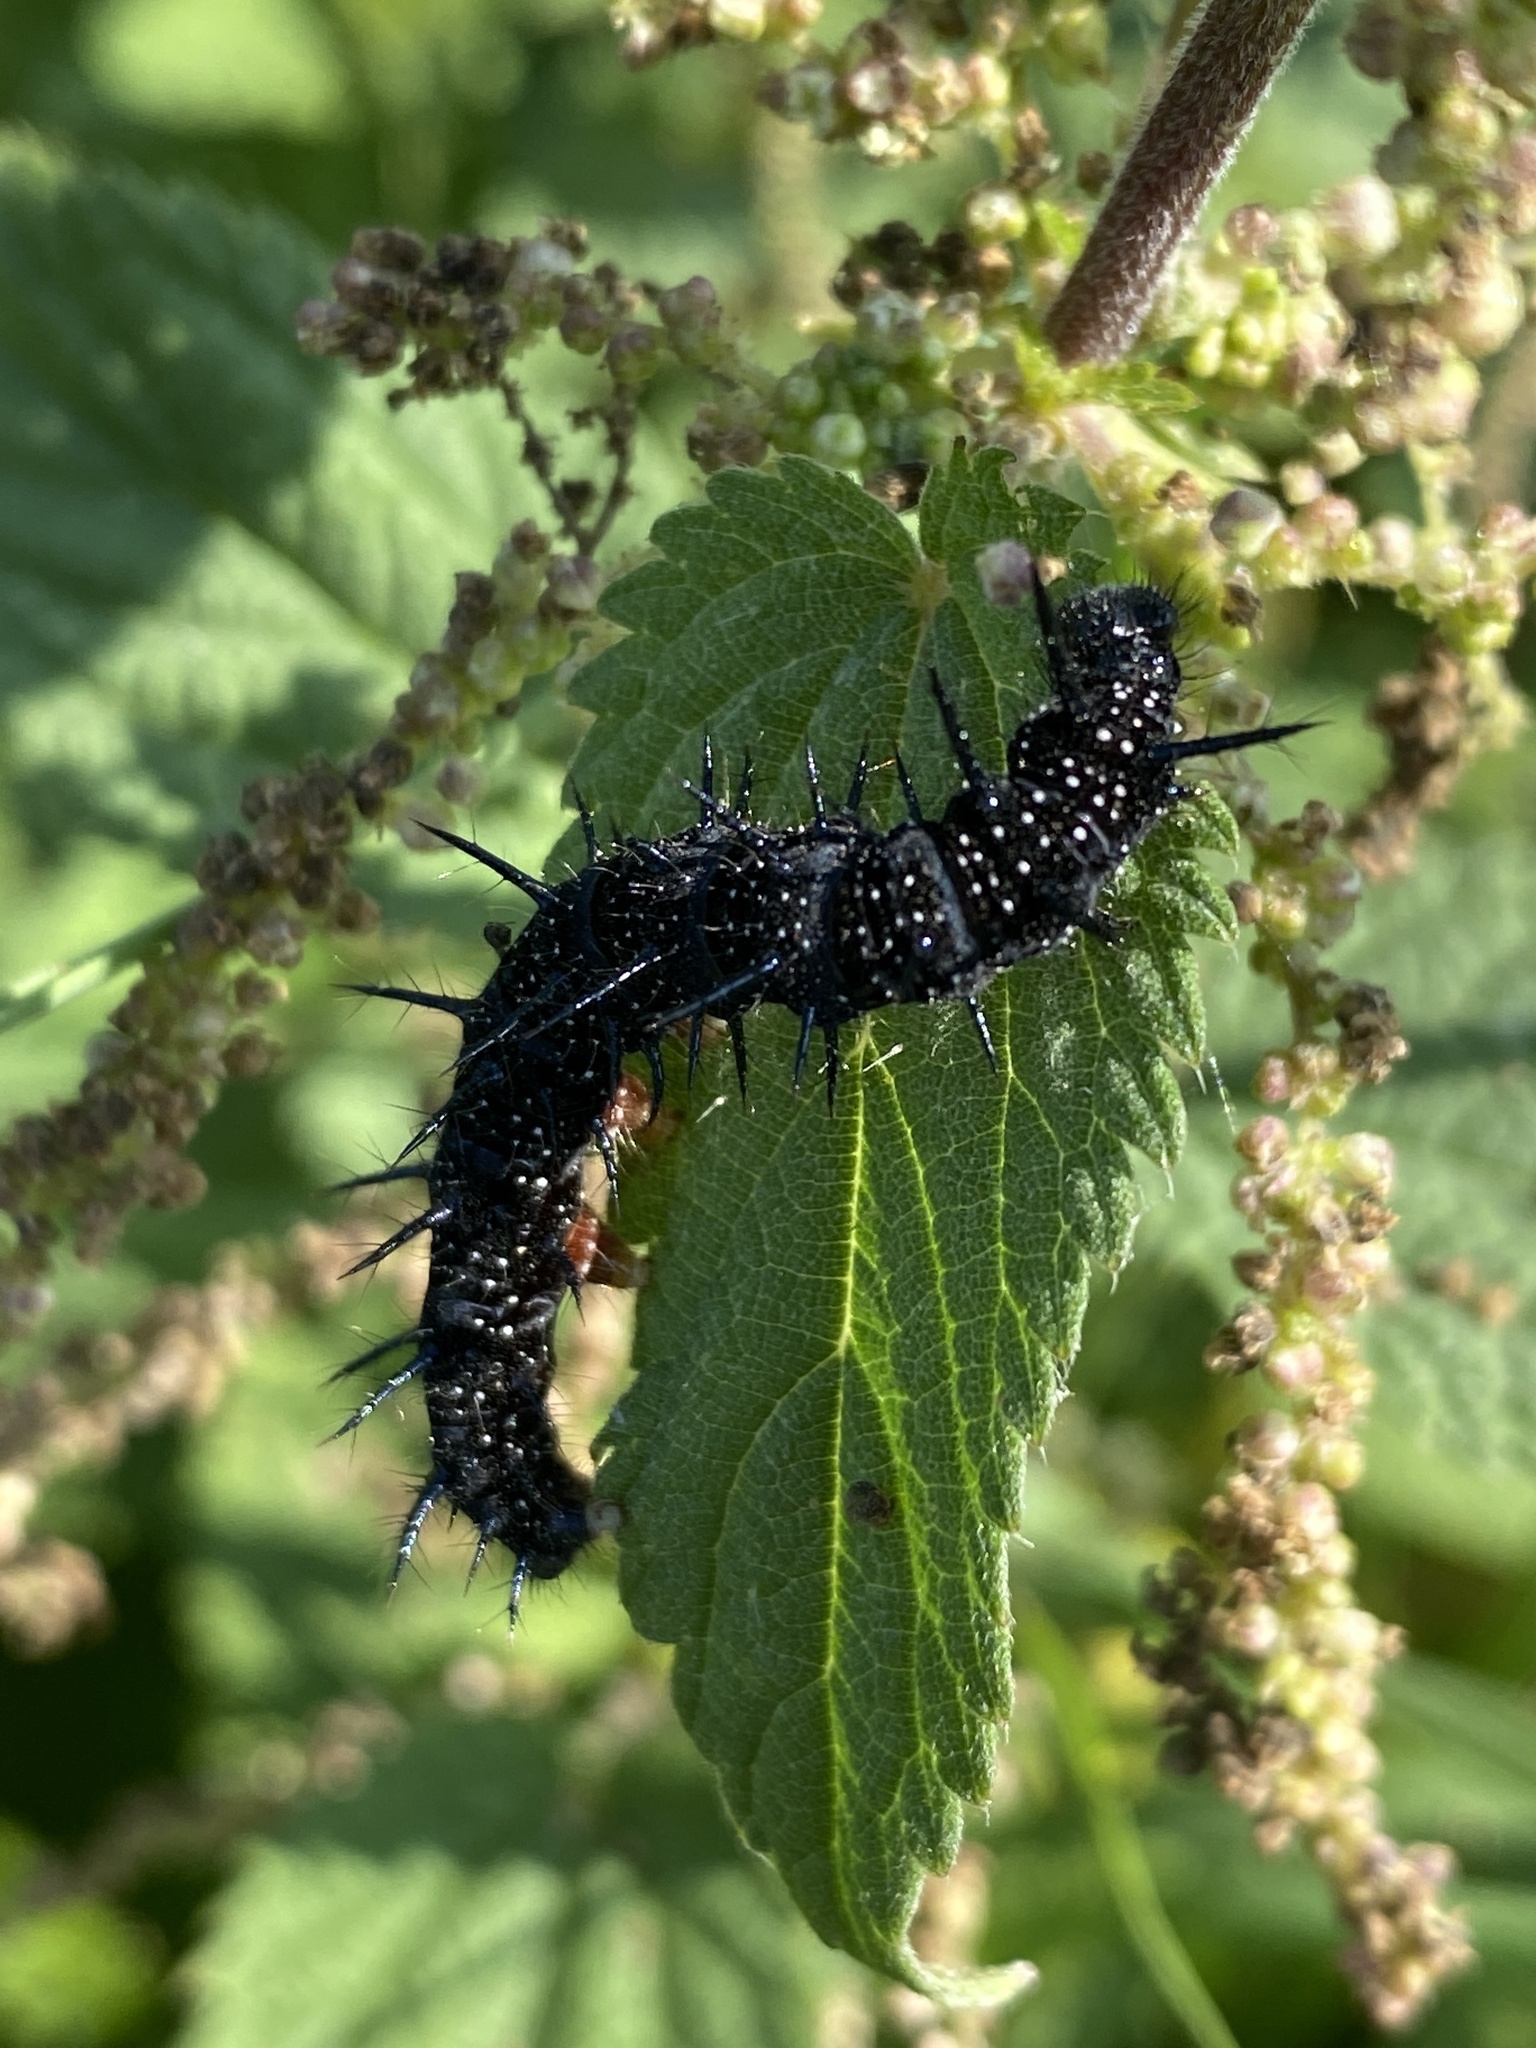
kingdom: Animalia
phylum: Arthropoda
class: Insecta
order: Lepidoptera
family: Nymphalidae
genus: Aglais
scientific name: Aglais io
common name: Peacock
